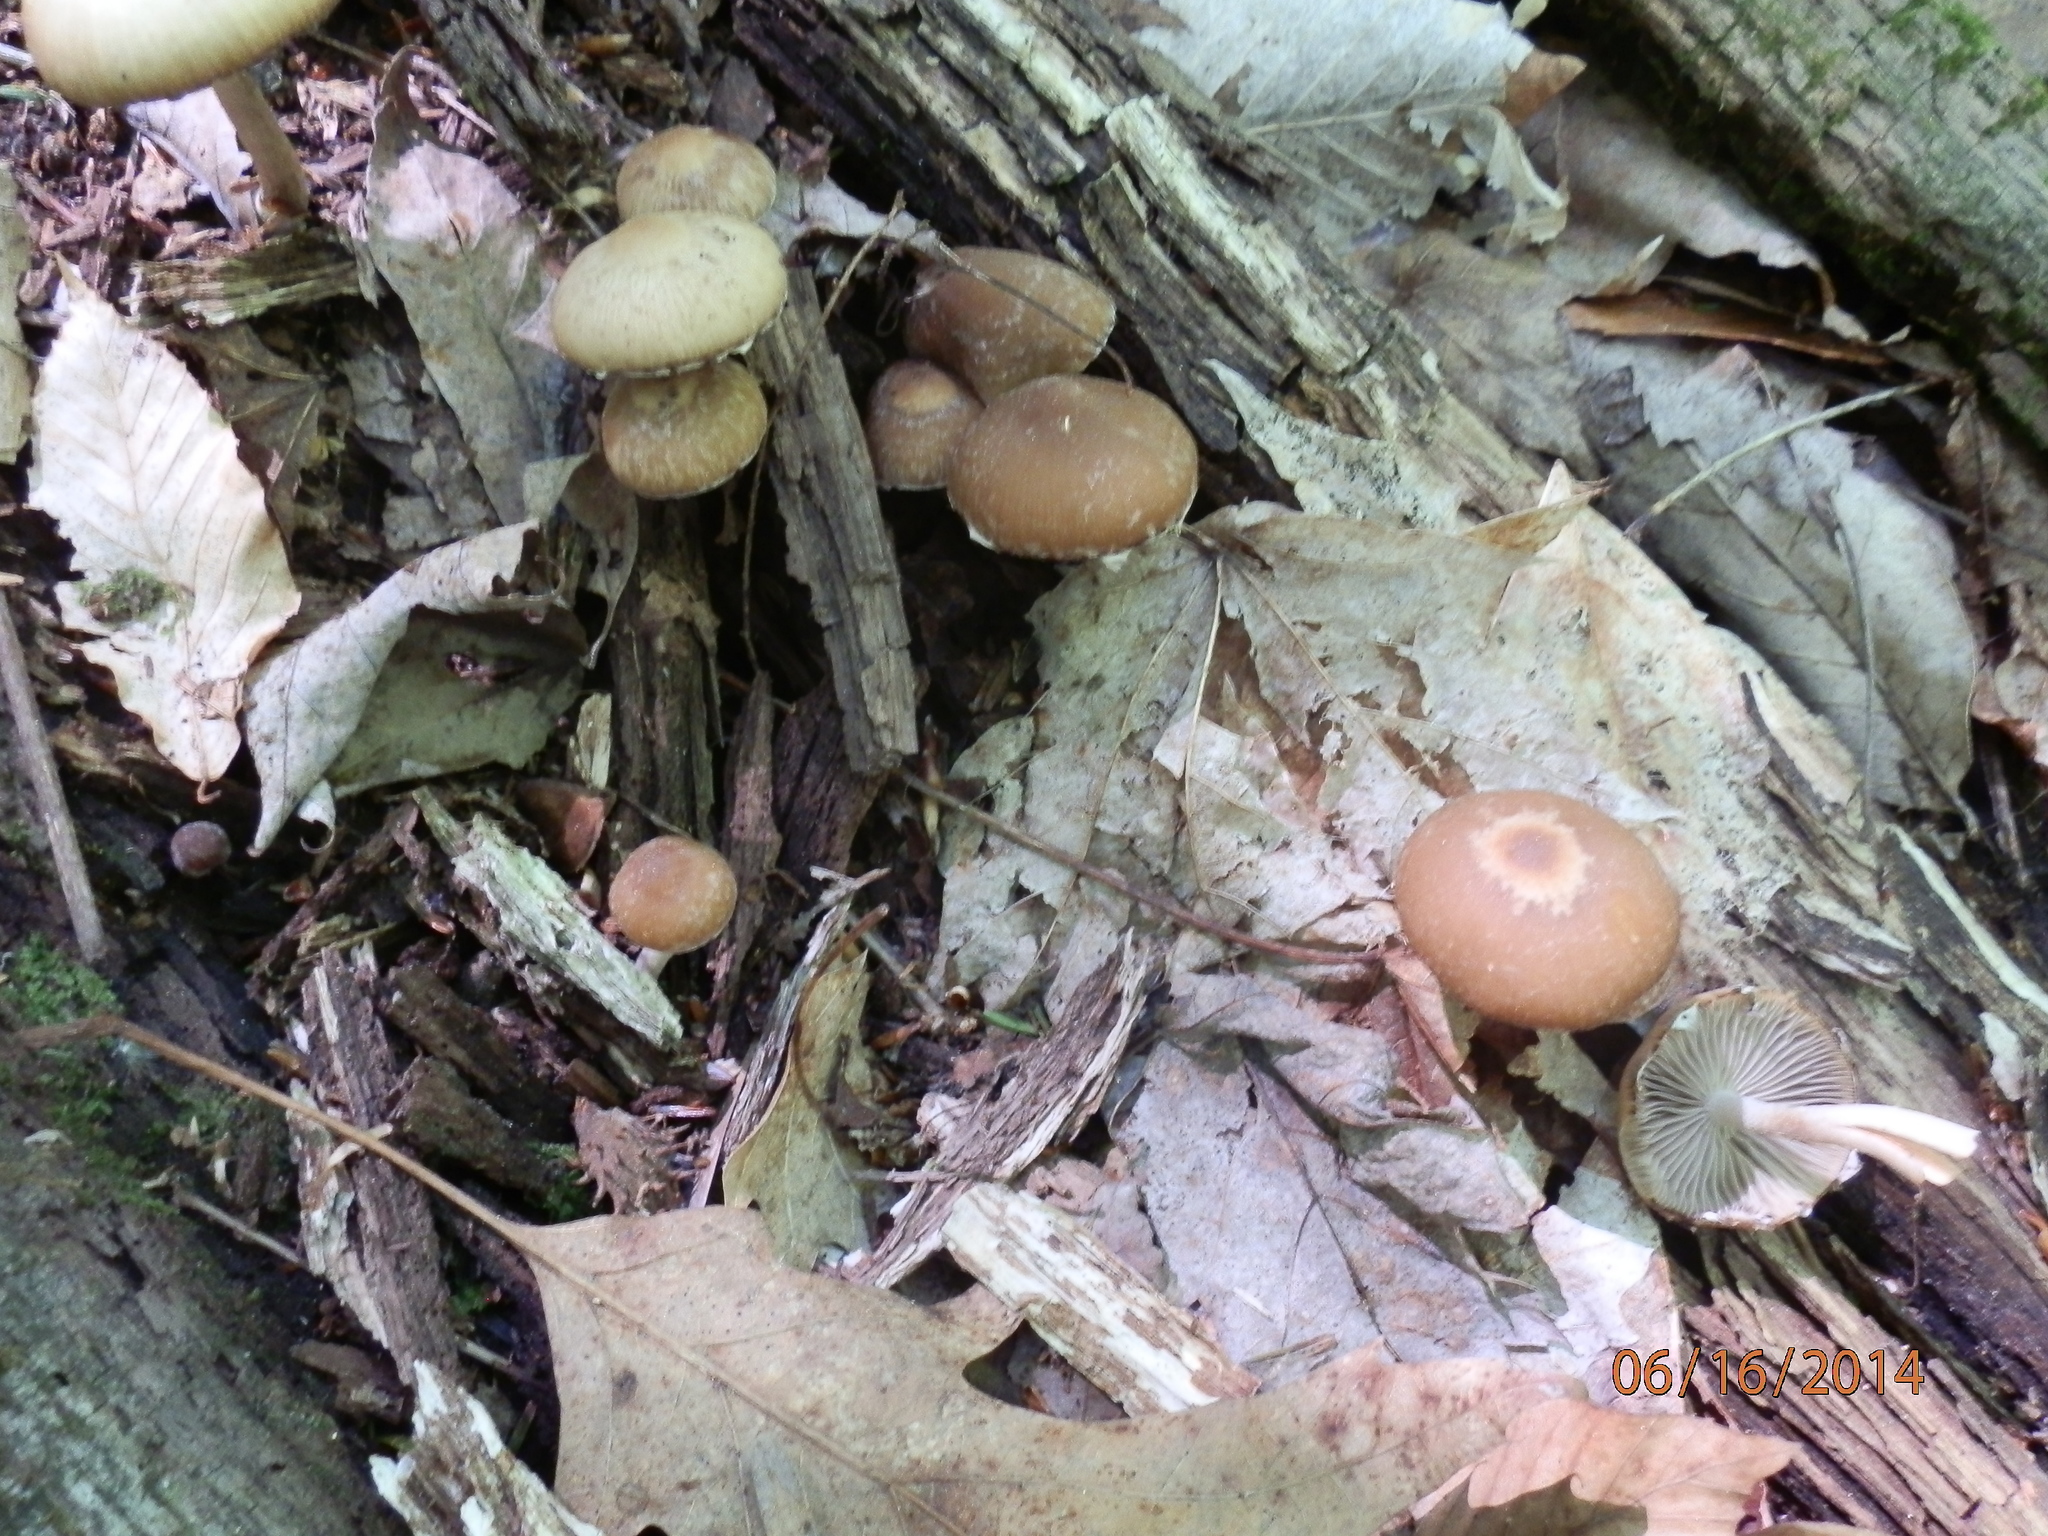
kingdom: Fungi
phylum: Basidiomycota
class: Agaricomycetes
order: Agaricales
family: Psathyrellaceae
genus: Psathyrella
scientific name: Psathyrella pseudovernalis
